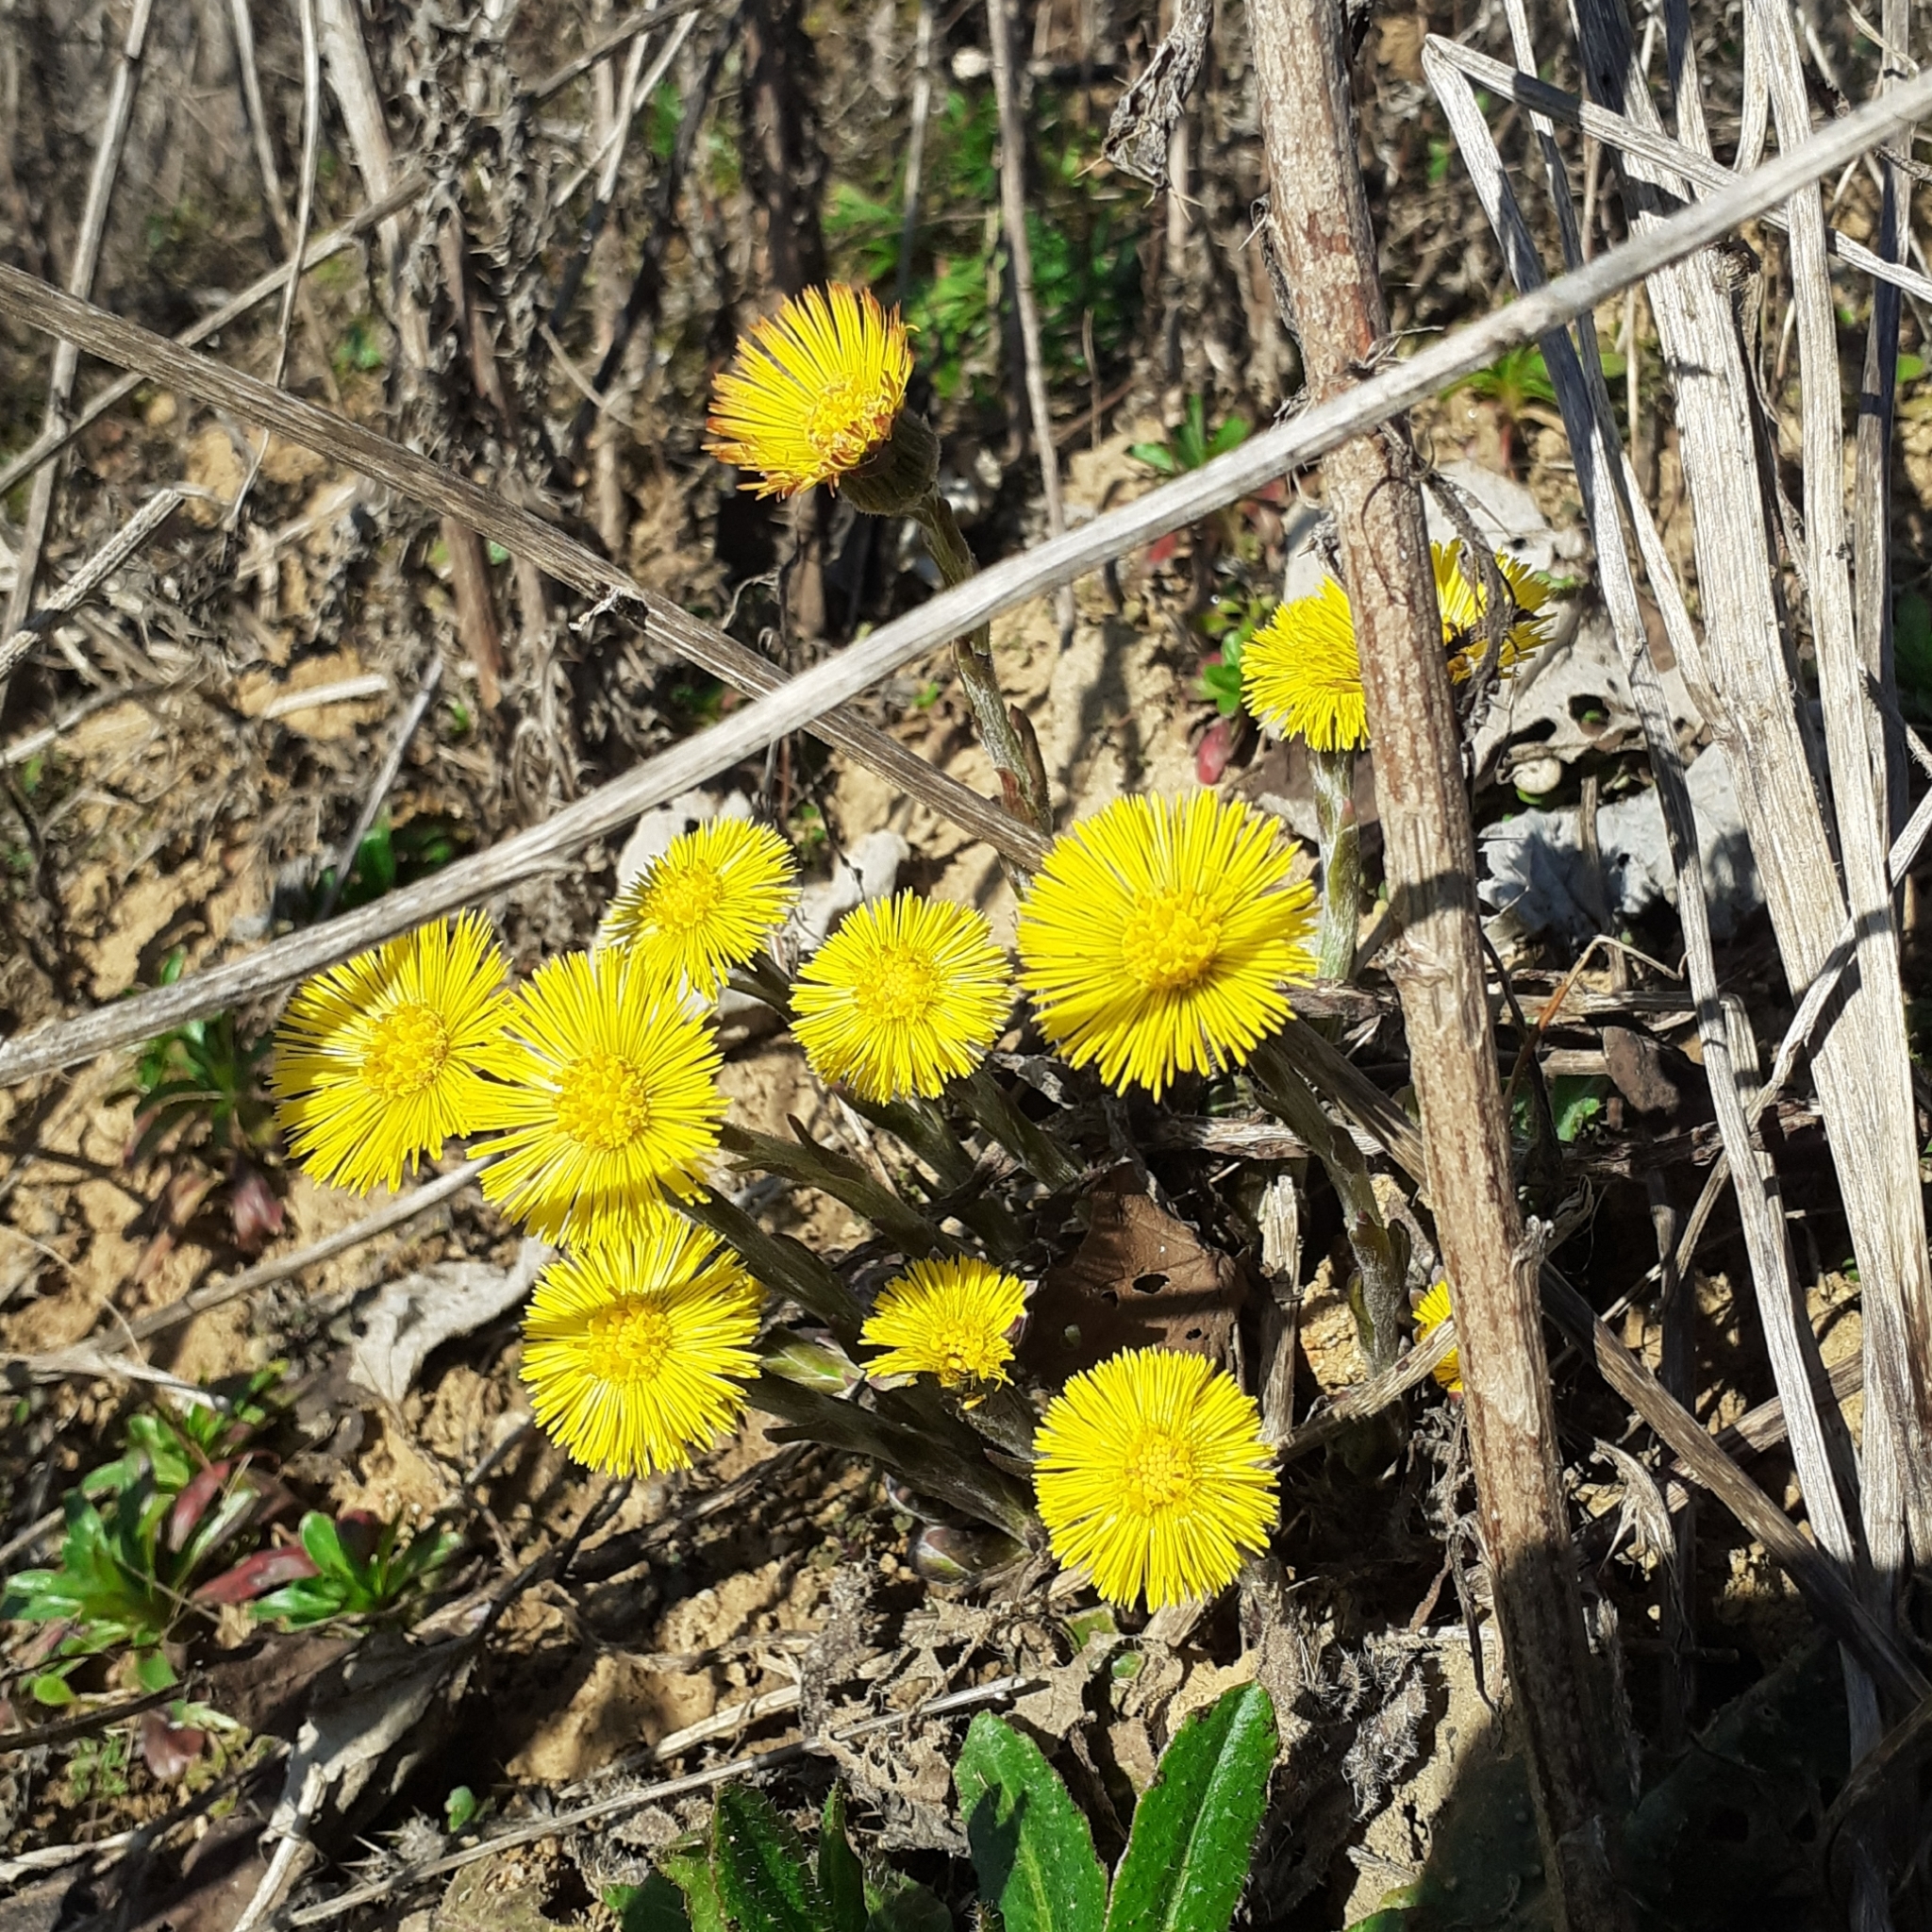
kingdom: Plantae
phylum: Tracheophyta
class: Magnoliopsida
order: Asterales
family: Asteraceae
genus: Tussilago
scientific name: Tussilago farfara
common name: Coltsfoot
